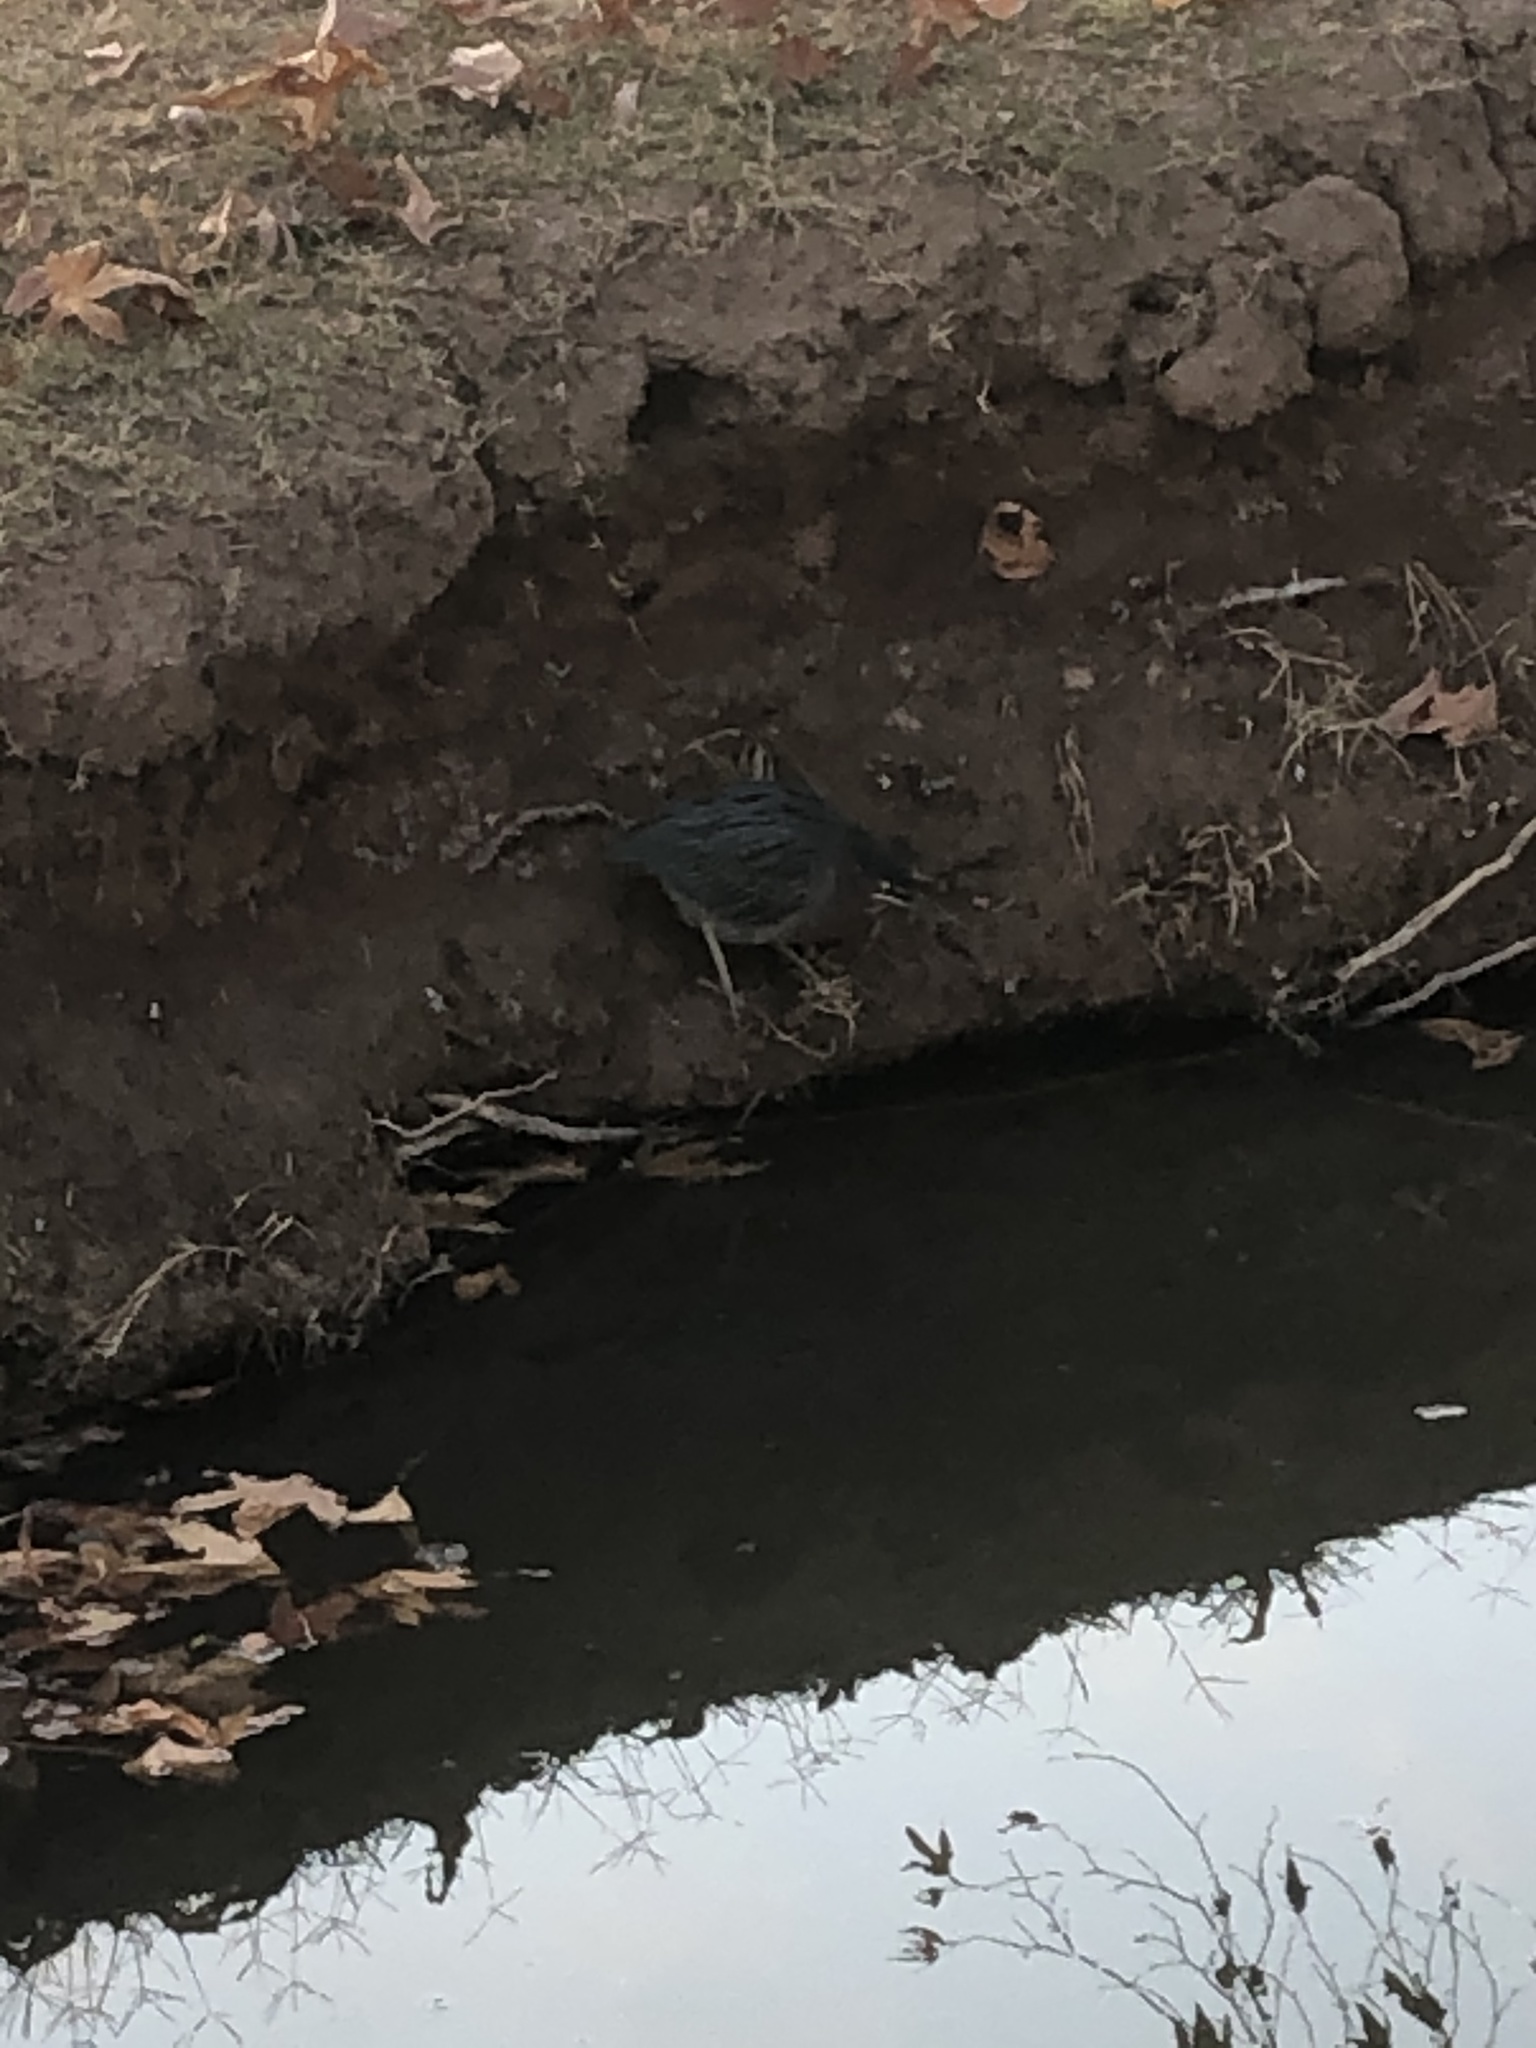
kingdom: Animalia
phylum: Chordata
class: Aves
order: Pelecaniformes
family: Ardeidae
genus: Butorides
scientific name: Butorides virescens
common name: Green heron
